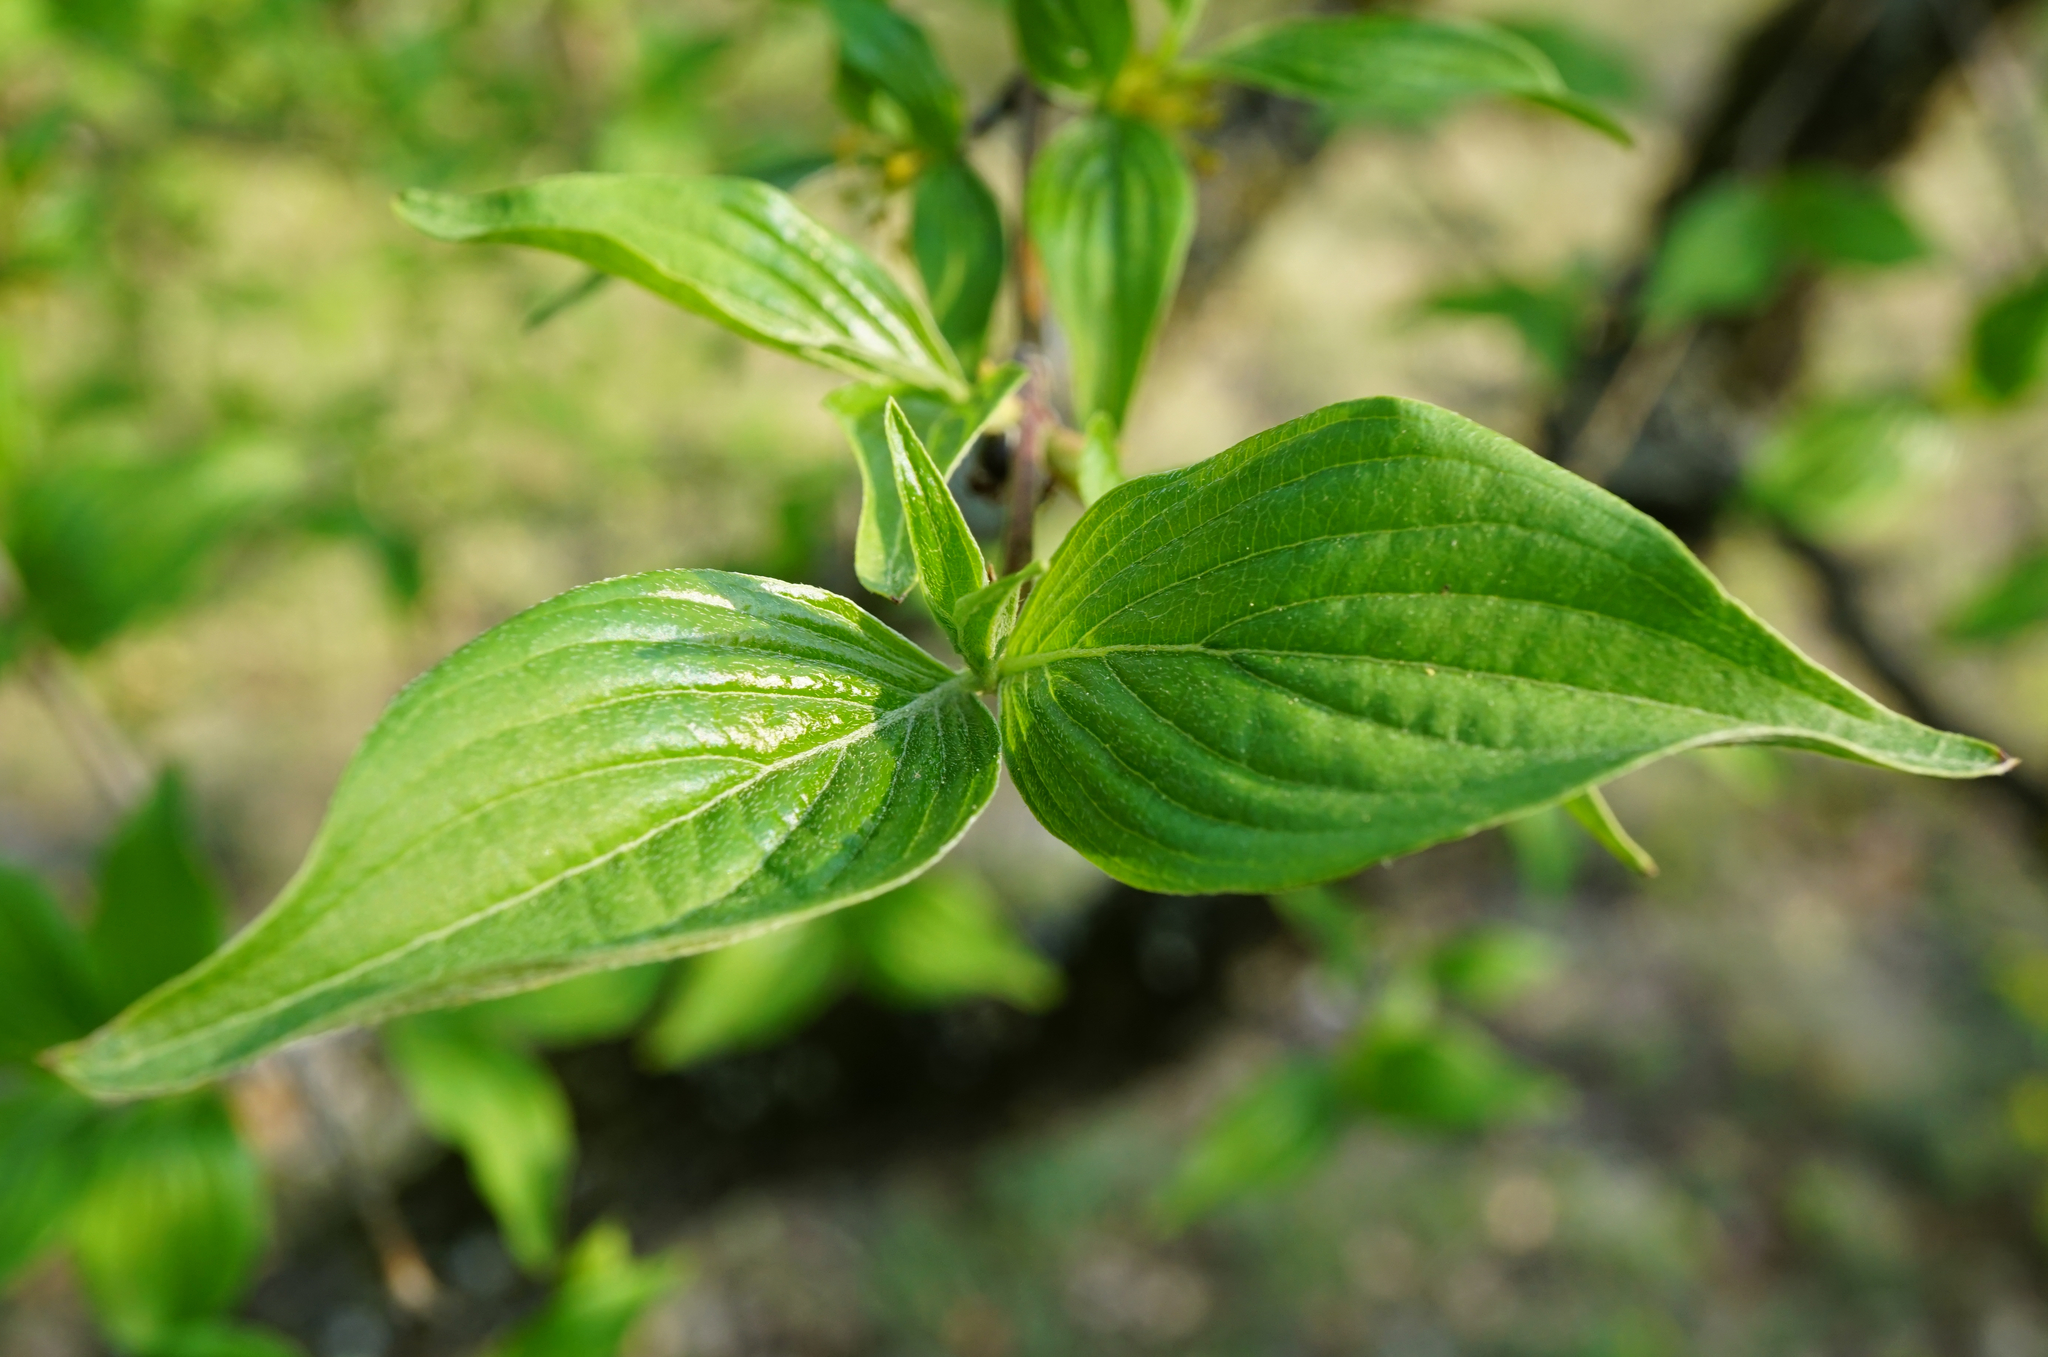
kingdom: Plantae
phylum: Tracheophyta
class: Magnoliopsida
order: Cornales
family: Cornaceae
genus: Cornus
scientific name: Cornus mas
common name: Cornelian-cherry
